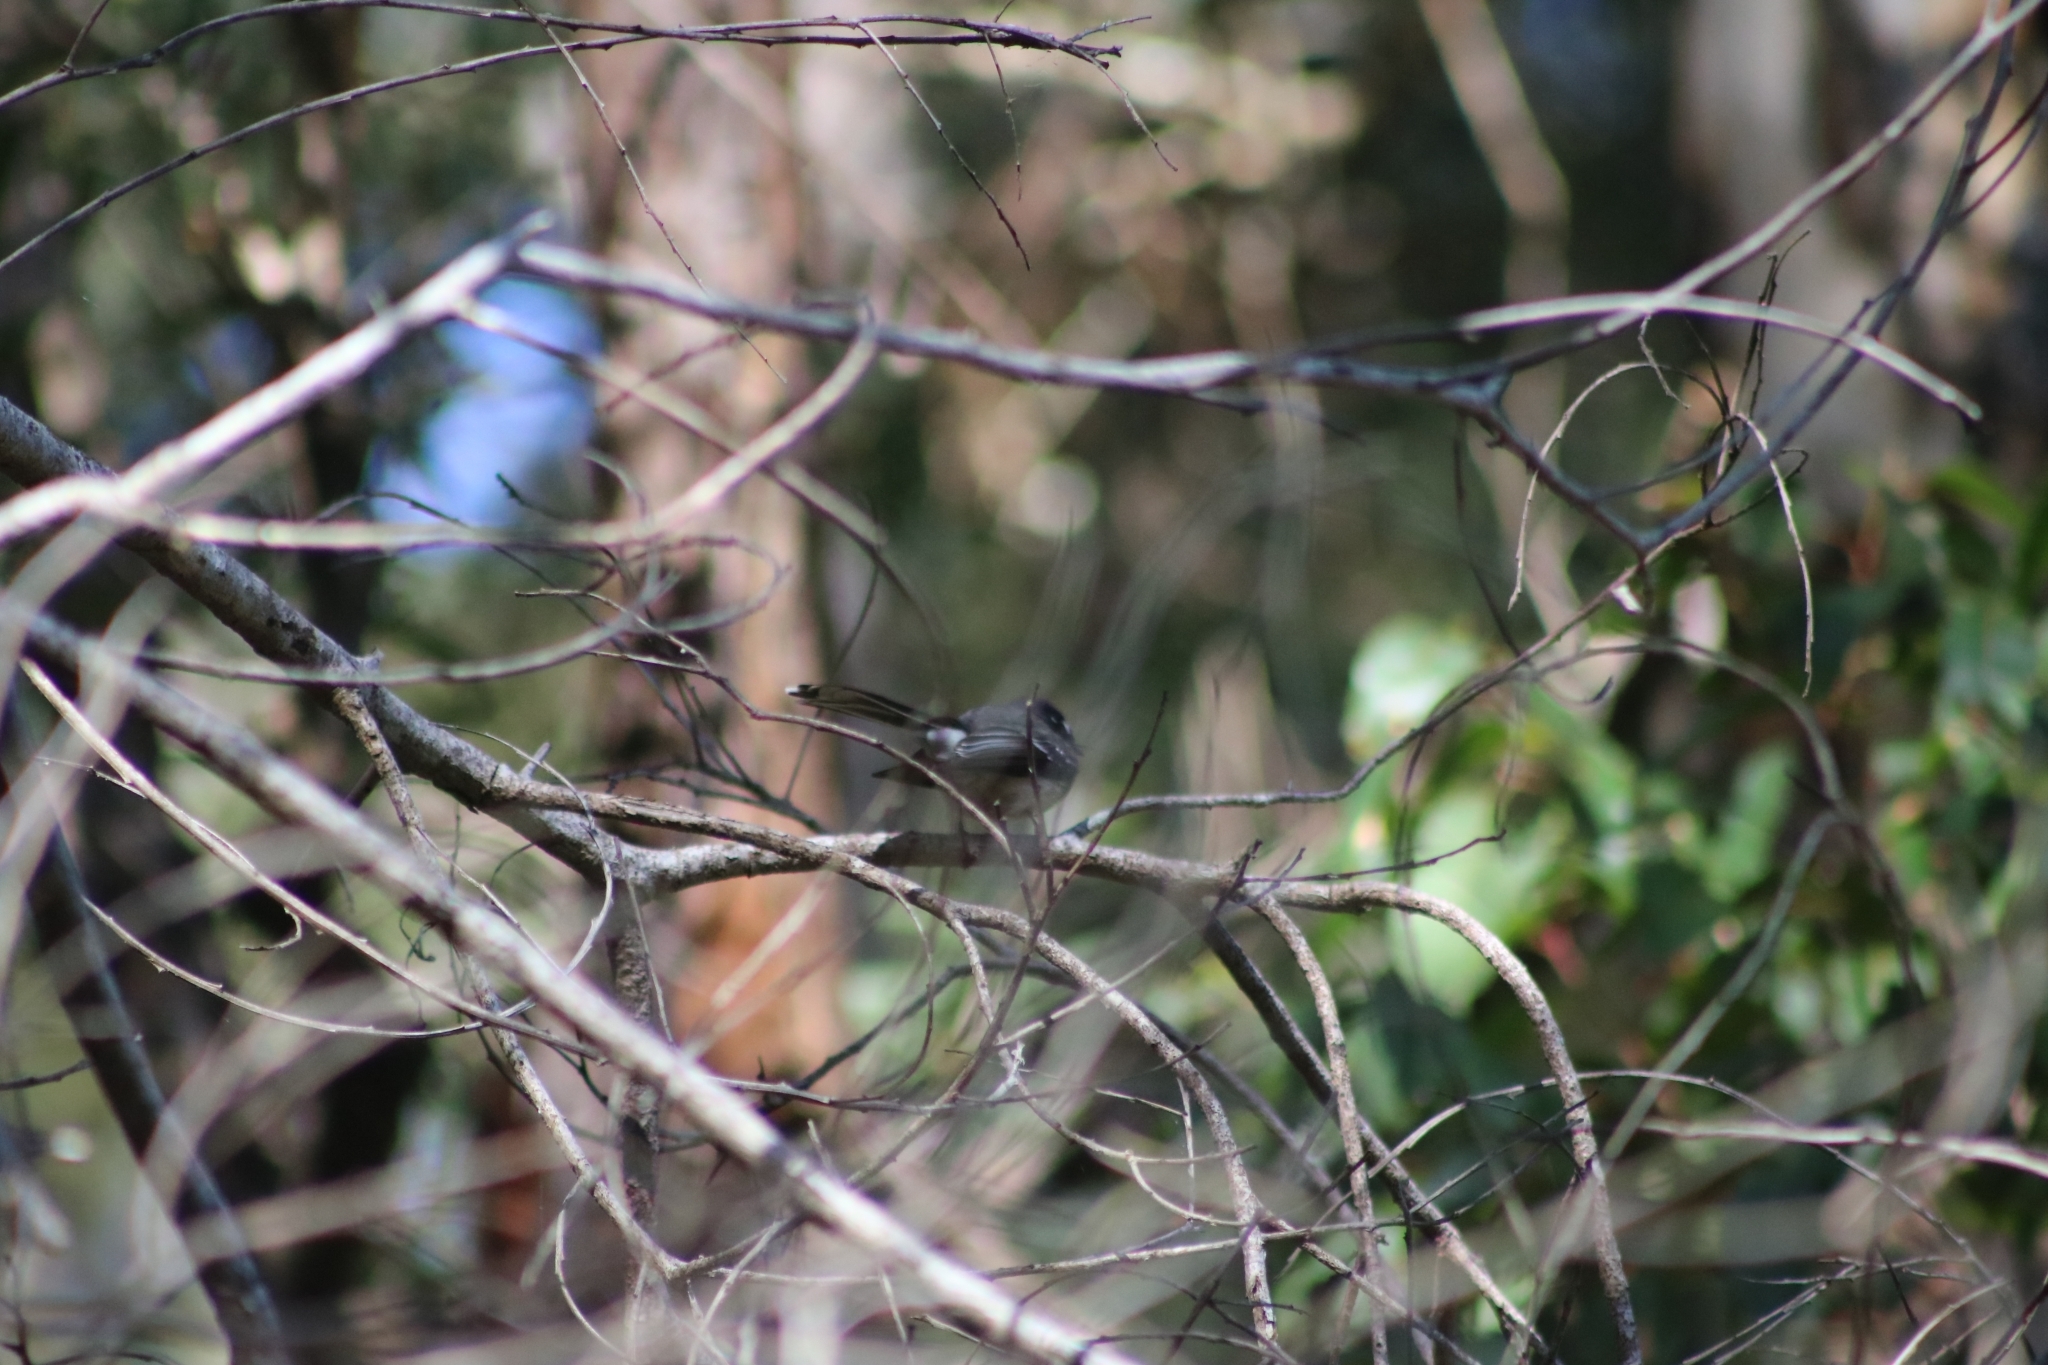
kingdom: Animalia
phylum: Chordata
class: Aves
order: Passeriformes
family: Rhipiduridae
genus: Rhipidura
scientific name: Rhipidura albiscapa
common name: Grey fantail
